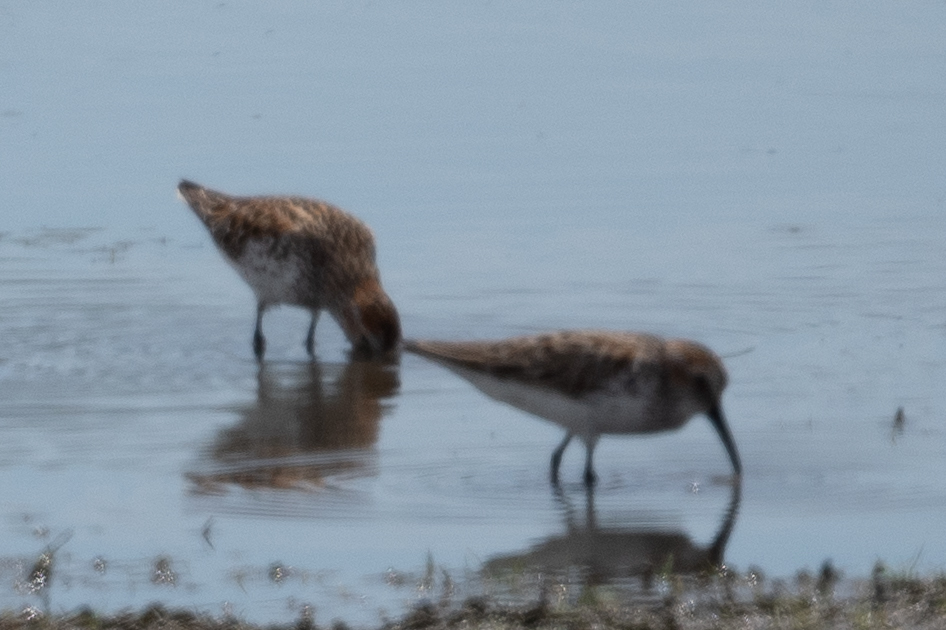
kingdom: Animalia
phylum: Chordata
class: Aves
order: Charadriiformes
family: Scolopacidae
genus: Calidris
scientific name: Calidris mauri
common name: Western sandpiper
